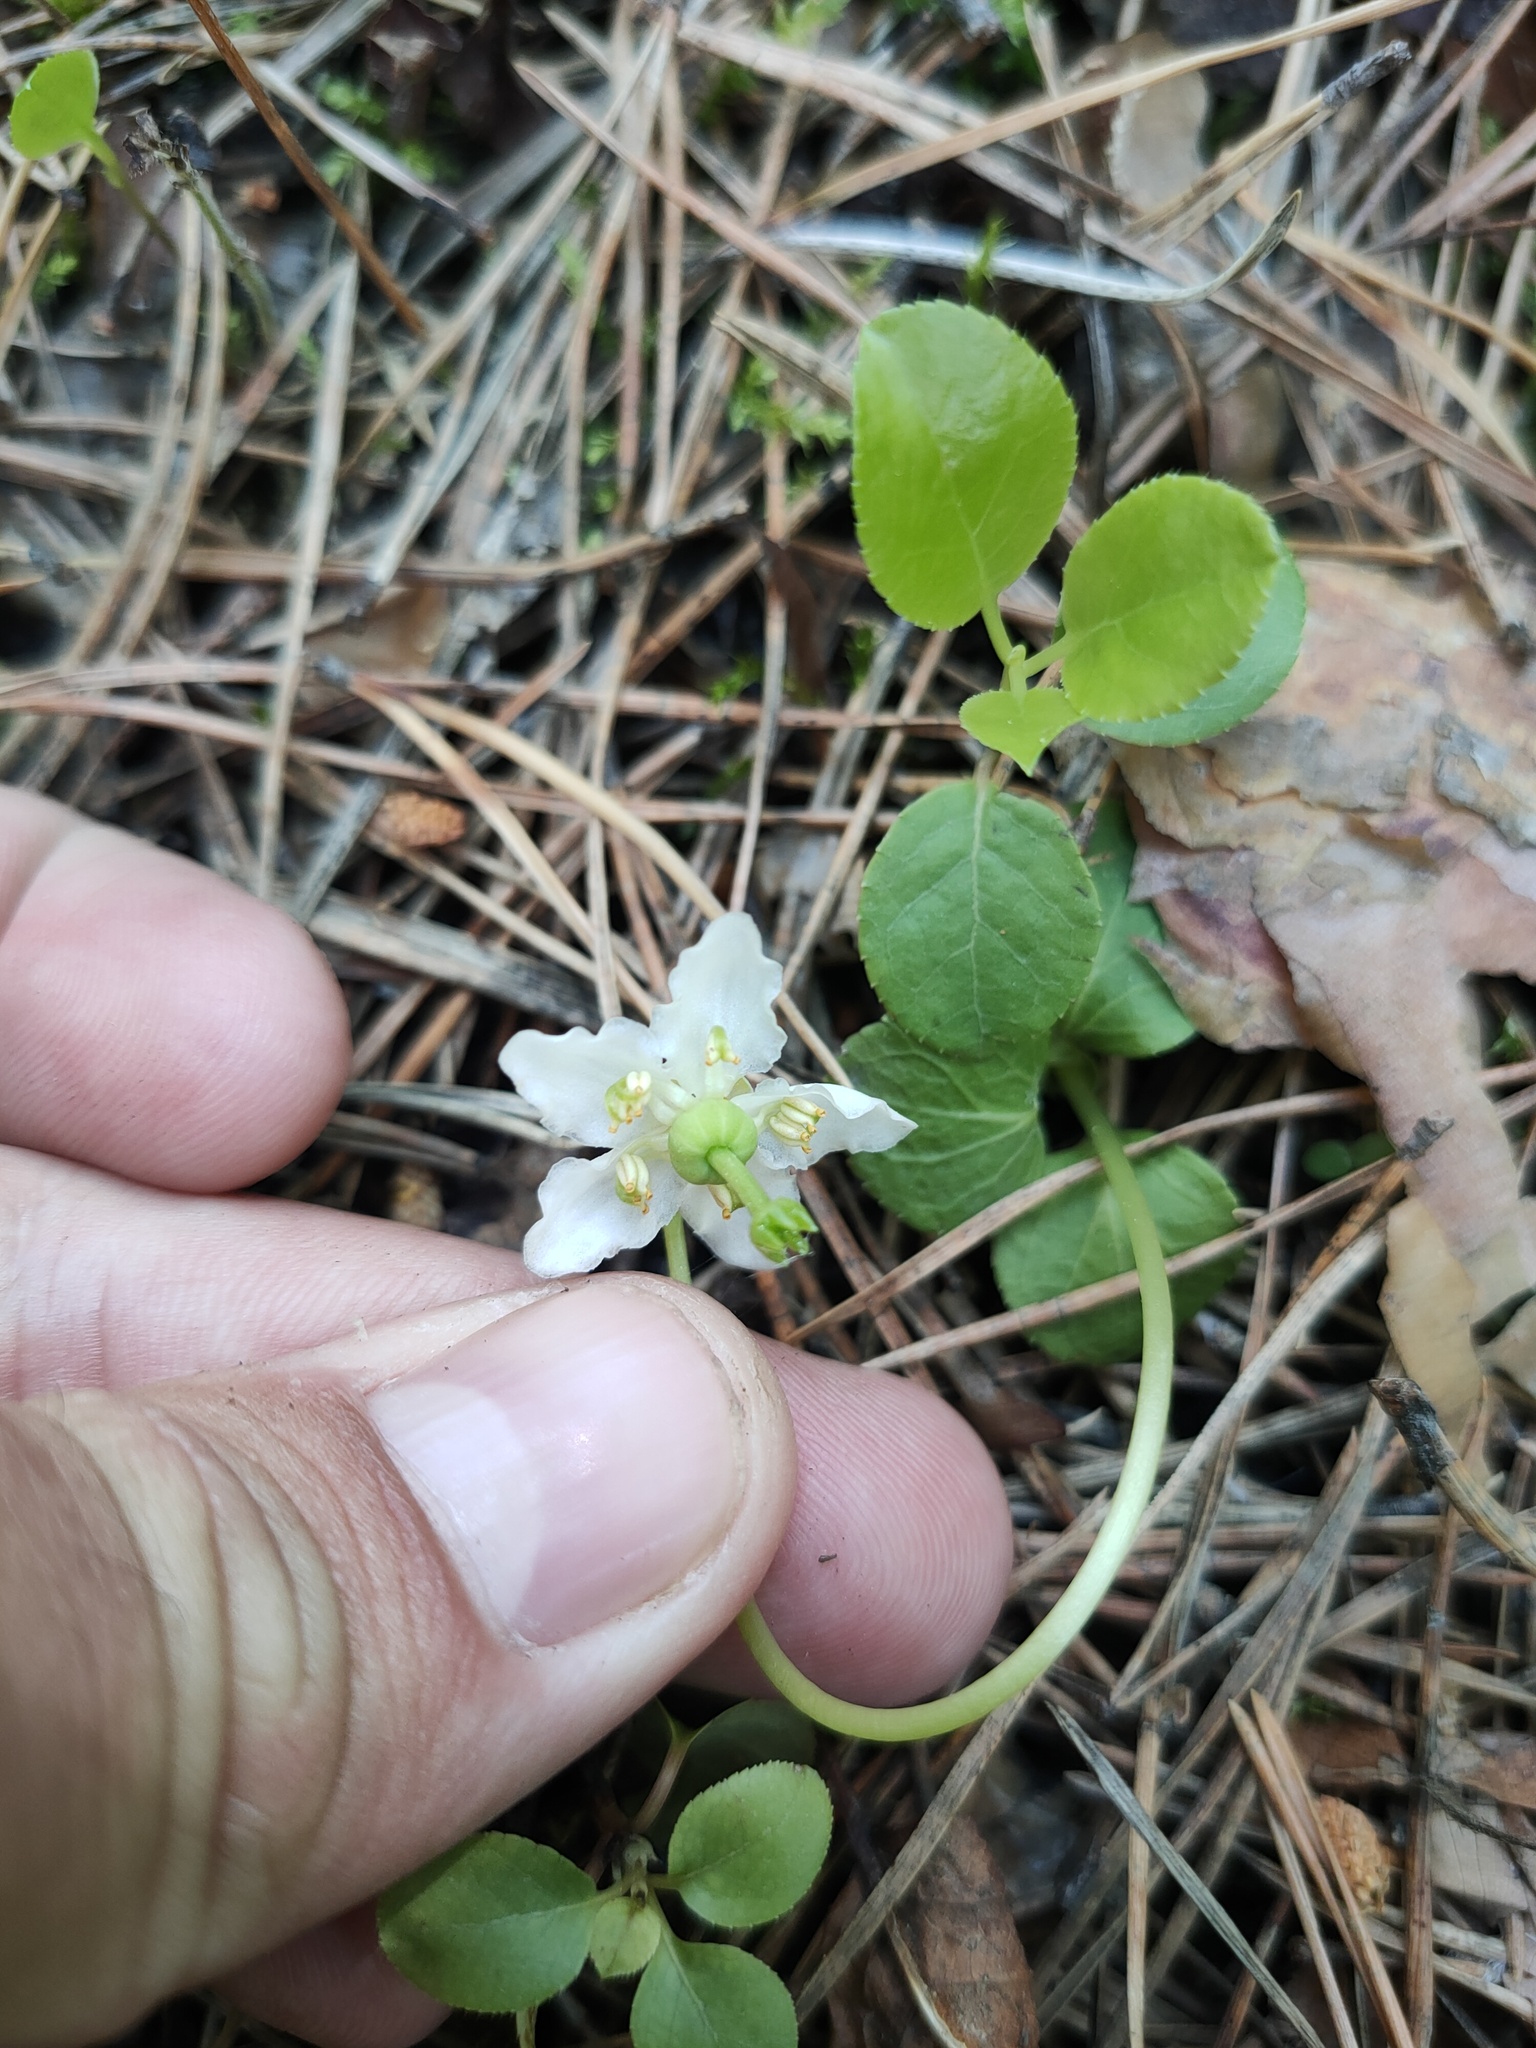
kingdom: Plantae
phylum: Tracheophyta
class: Magnoliopsida
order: Ericales
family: Ericaceae
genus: Moneses
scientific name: Moneses uniflora
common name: One-flowered wintergreen
